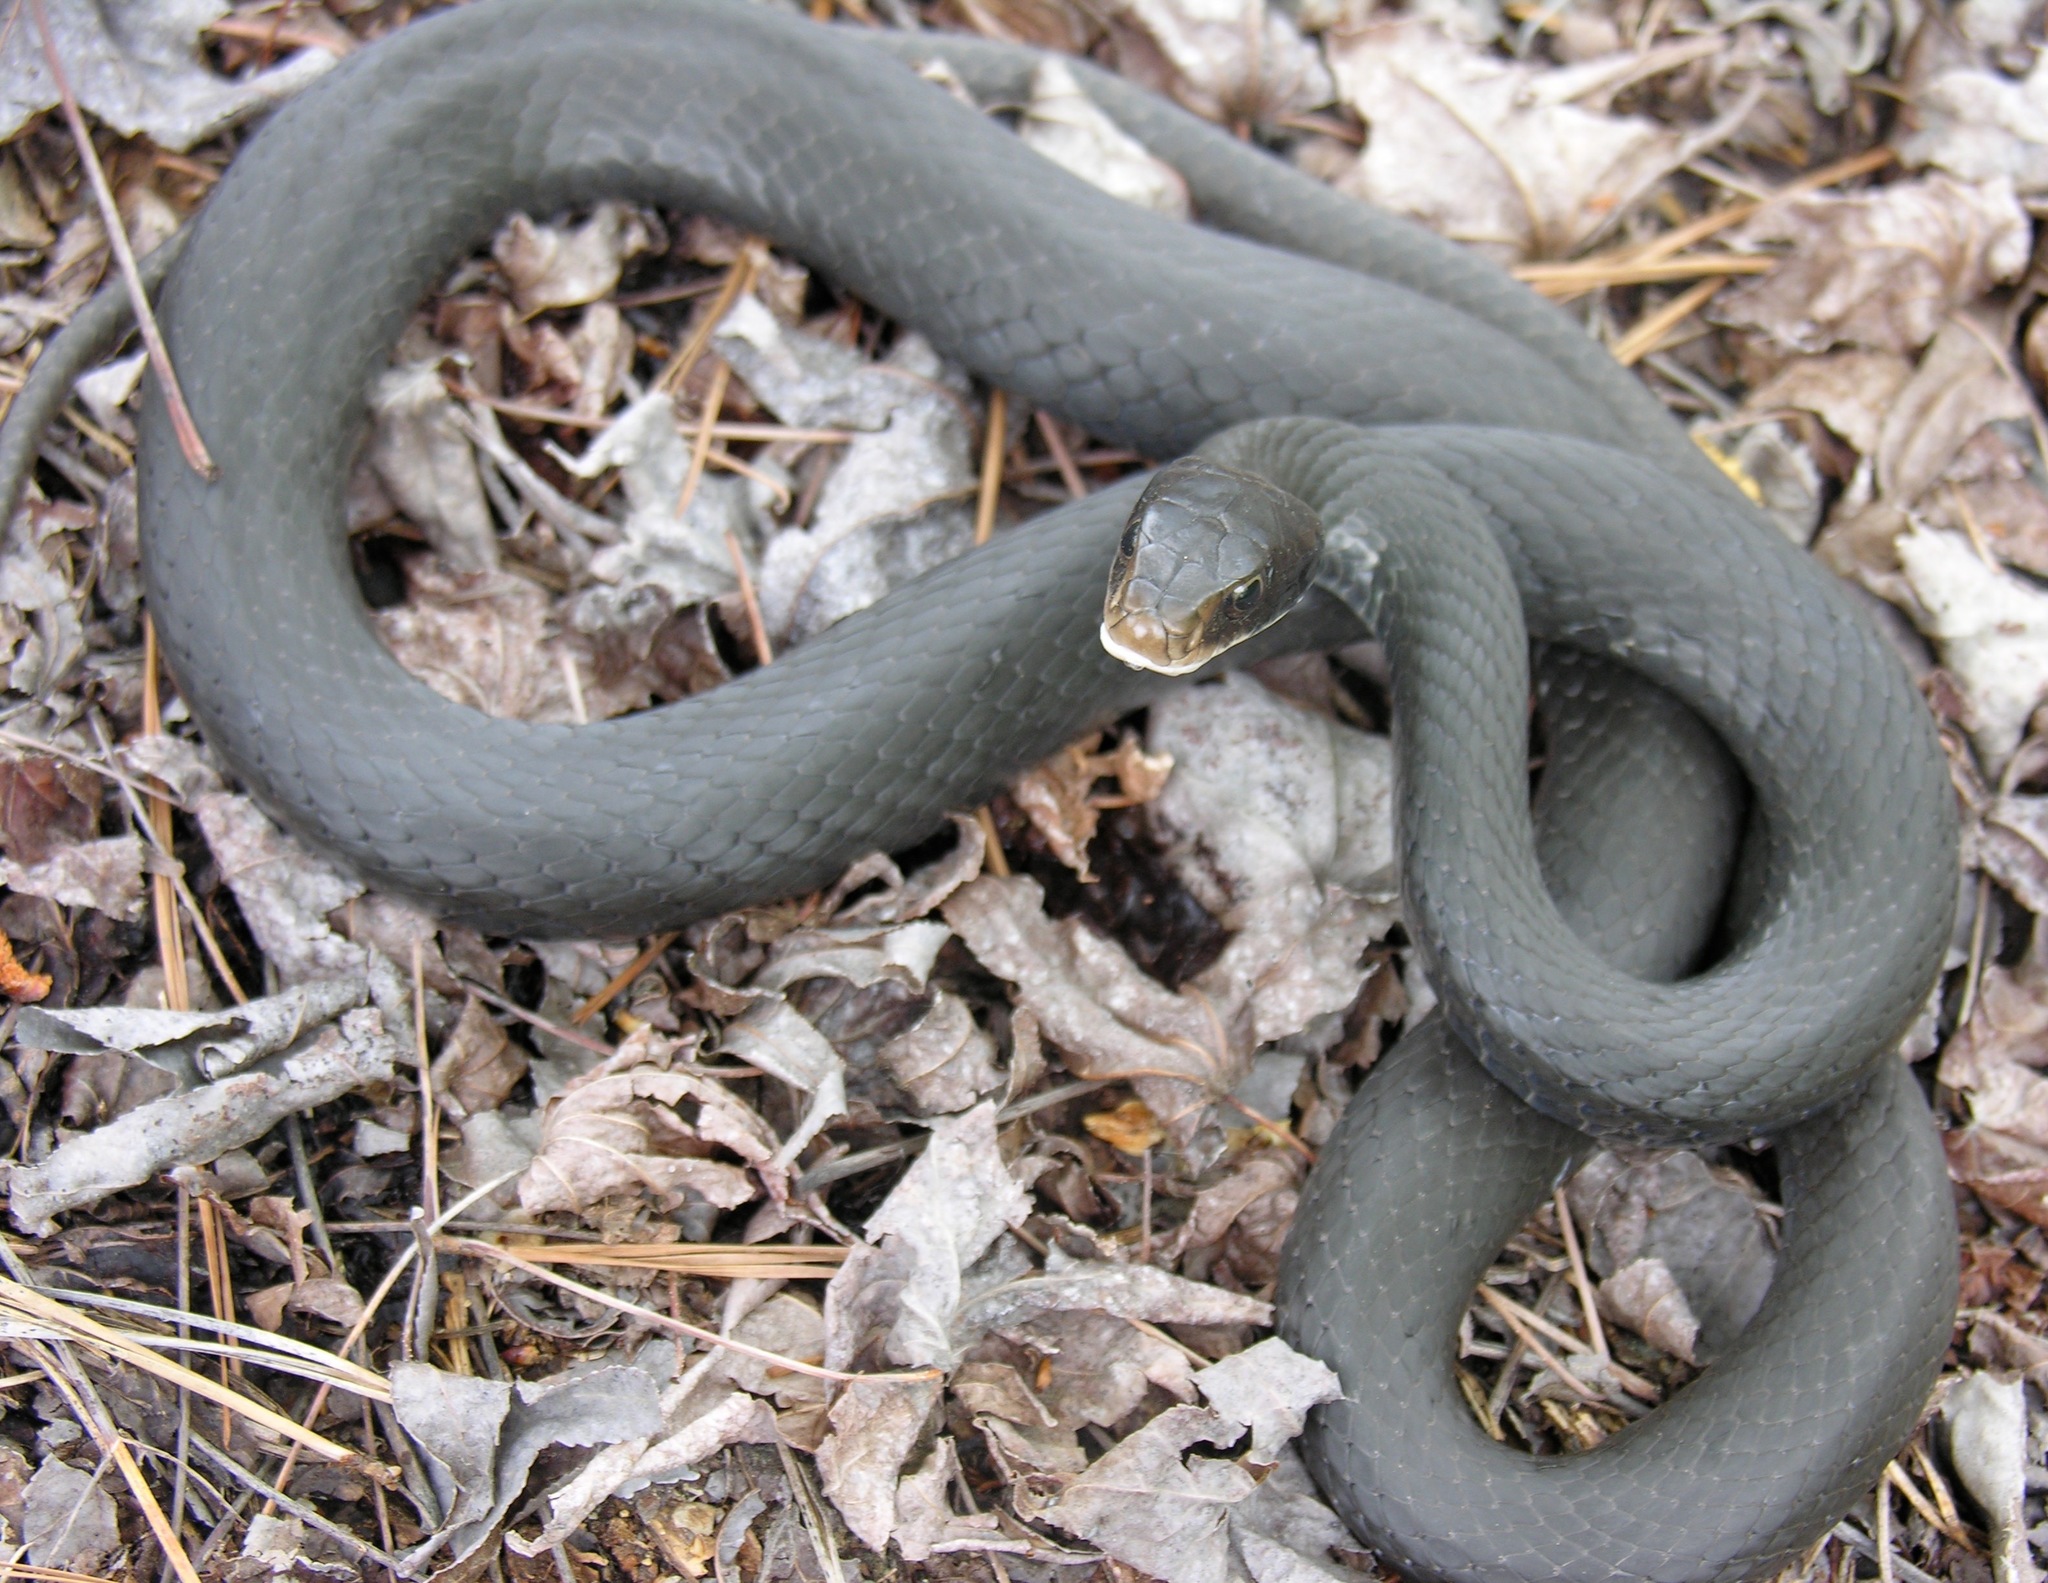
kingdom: Animalia
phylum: Chordata
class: Squamata
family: Colubridae
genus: Coluber
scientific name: Coluber constrictor
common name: Eastern racer
